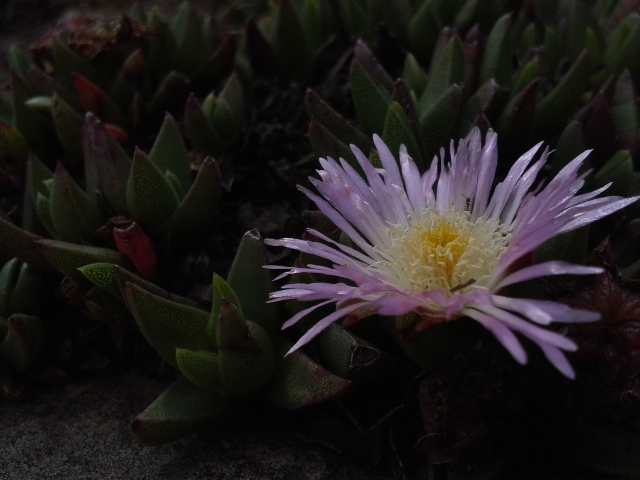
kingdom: Plantae
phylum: Tracheophyta
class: Magnoliopsida
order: Caryophyllales
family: Aizoaceae
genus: Khadia
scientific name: Khadia alticola
